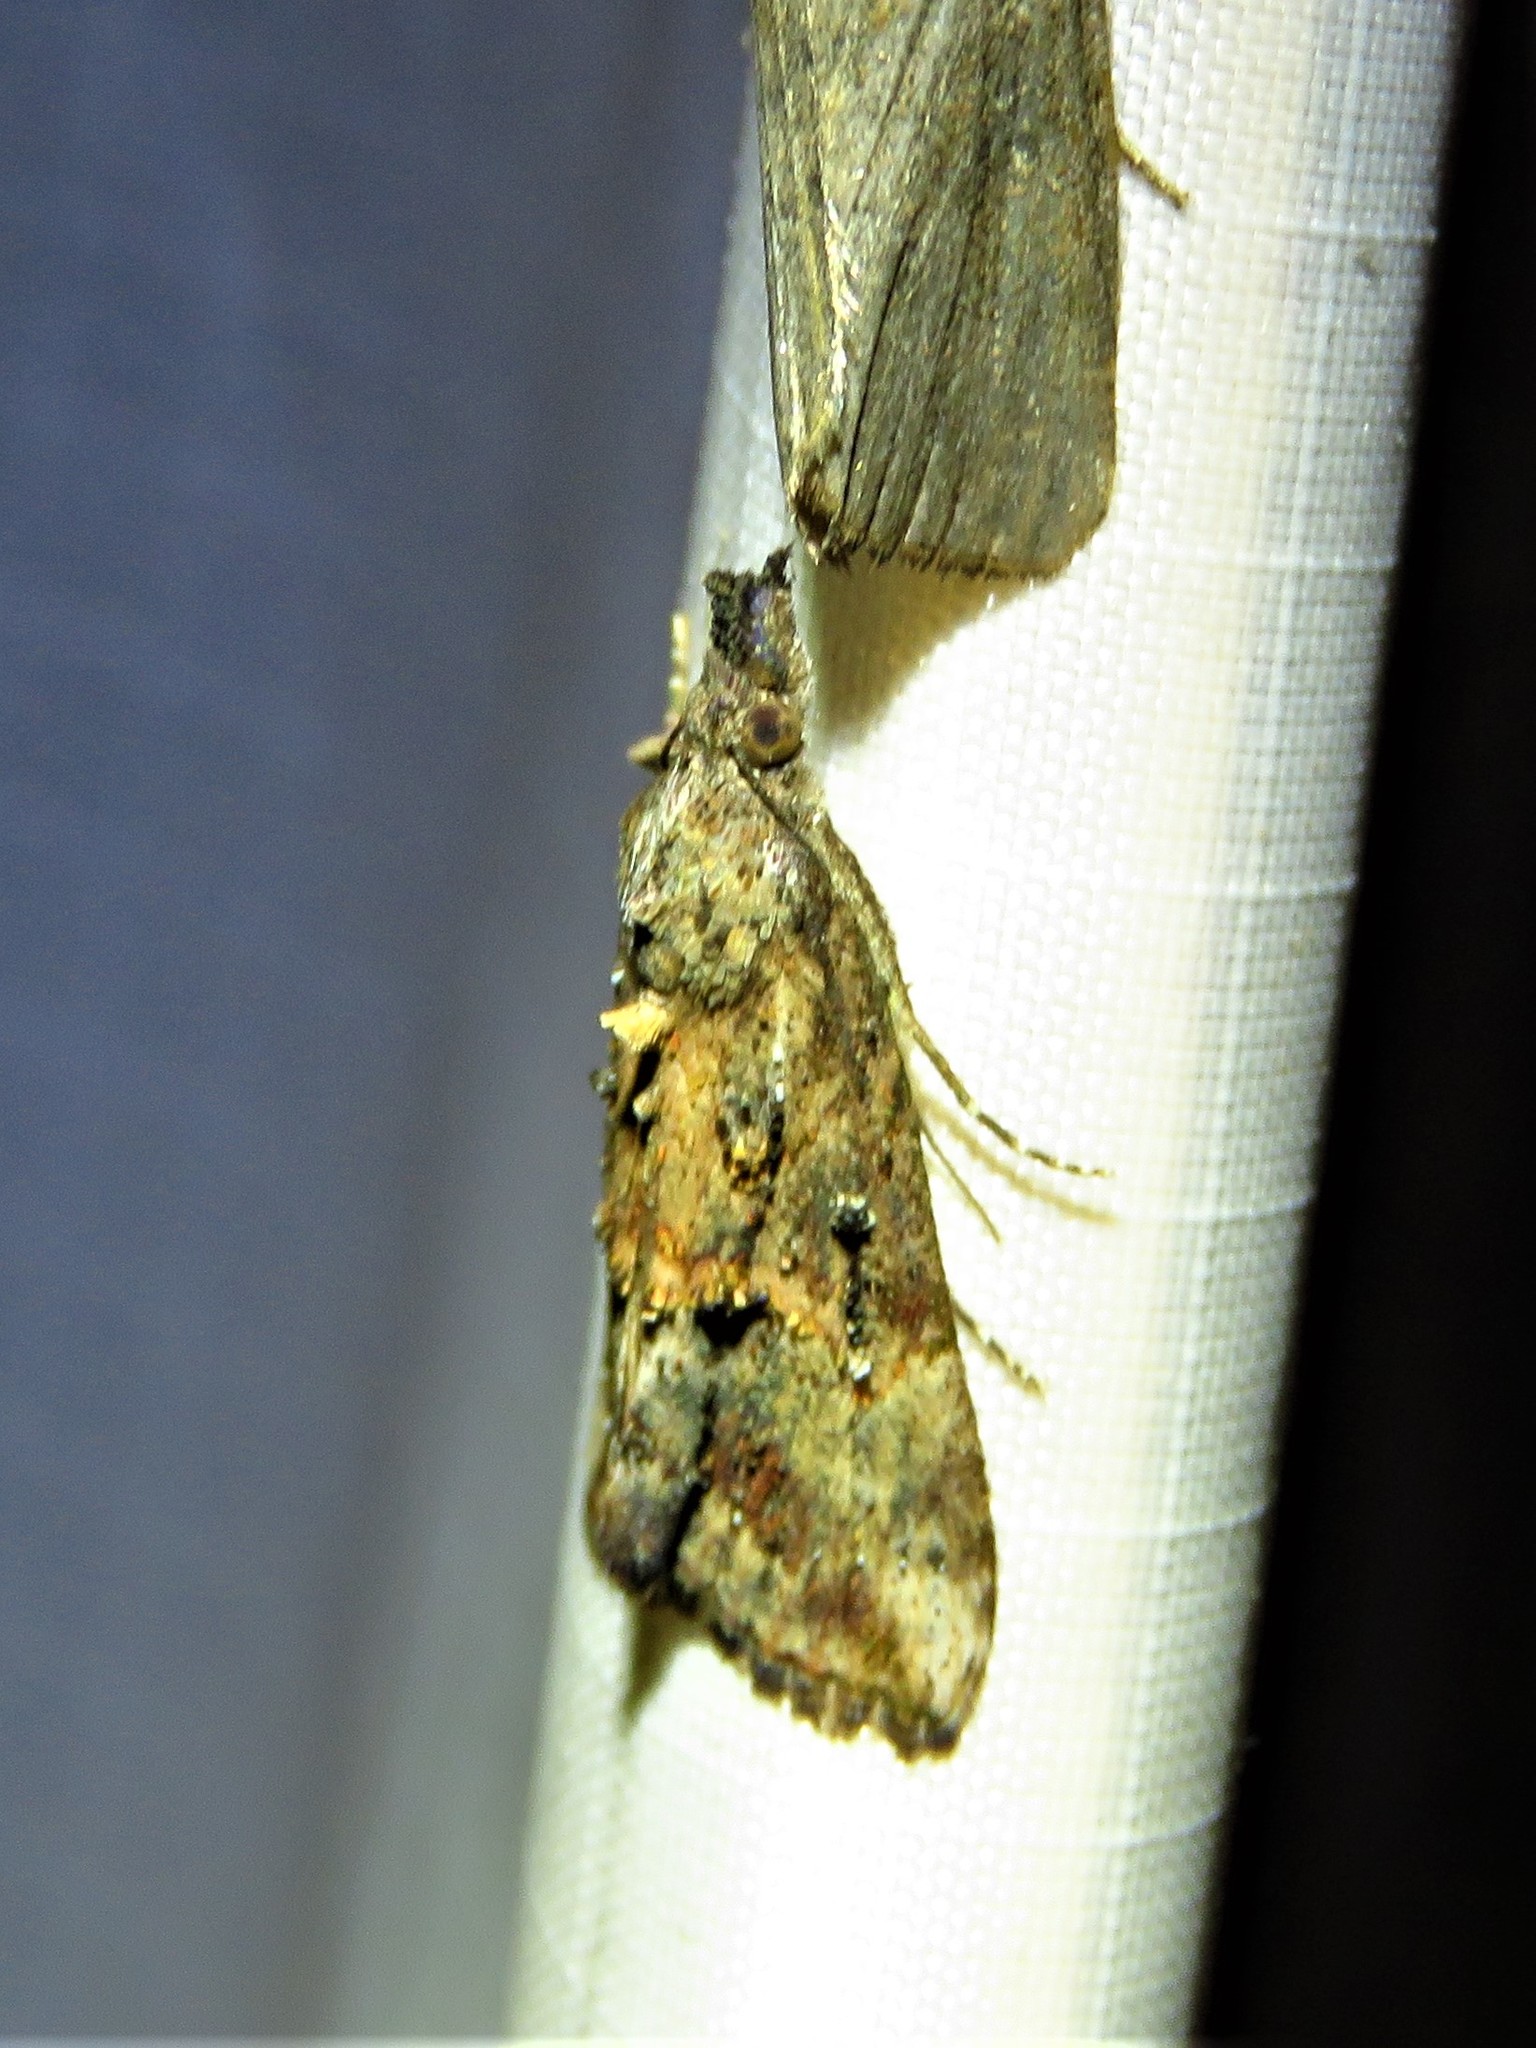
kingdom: Animalia
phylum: Arthropoda
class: Insecta
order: Lepidoptera
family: Erebidae
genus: Hypena
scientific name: Hypena scabra
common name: Green cloverworm
